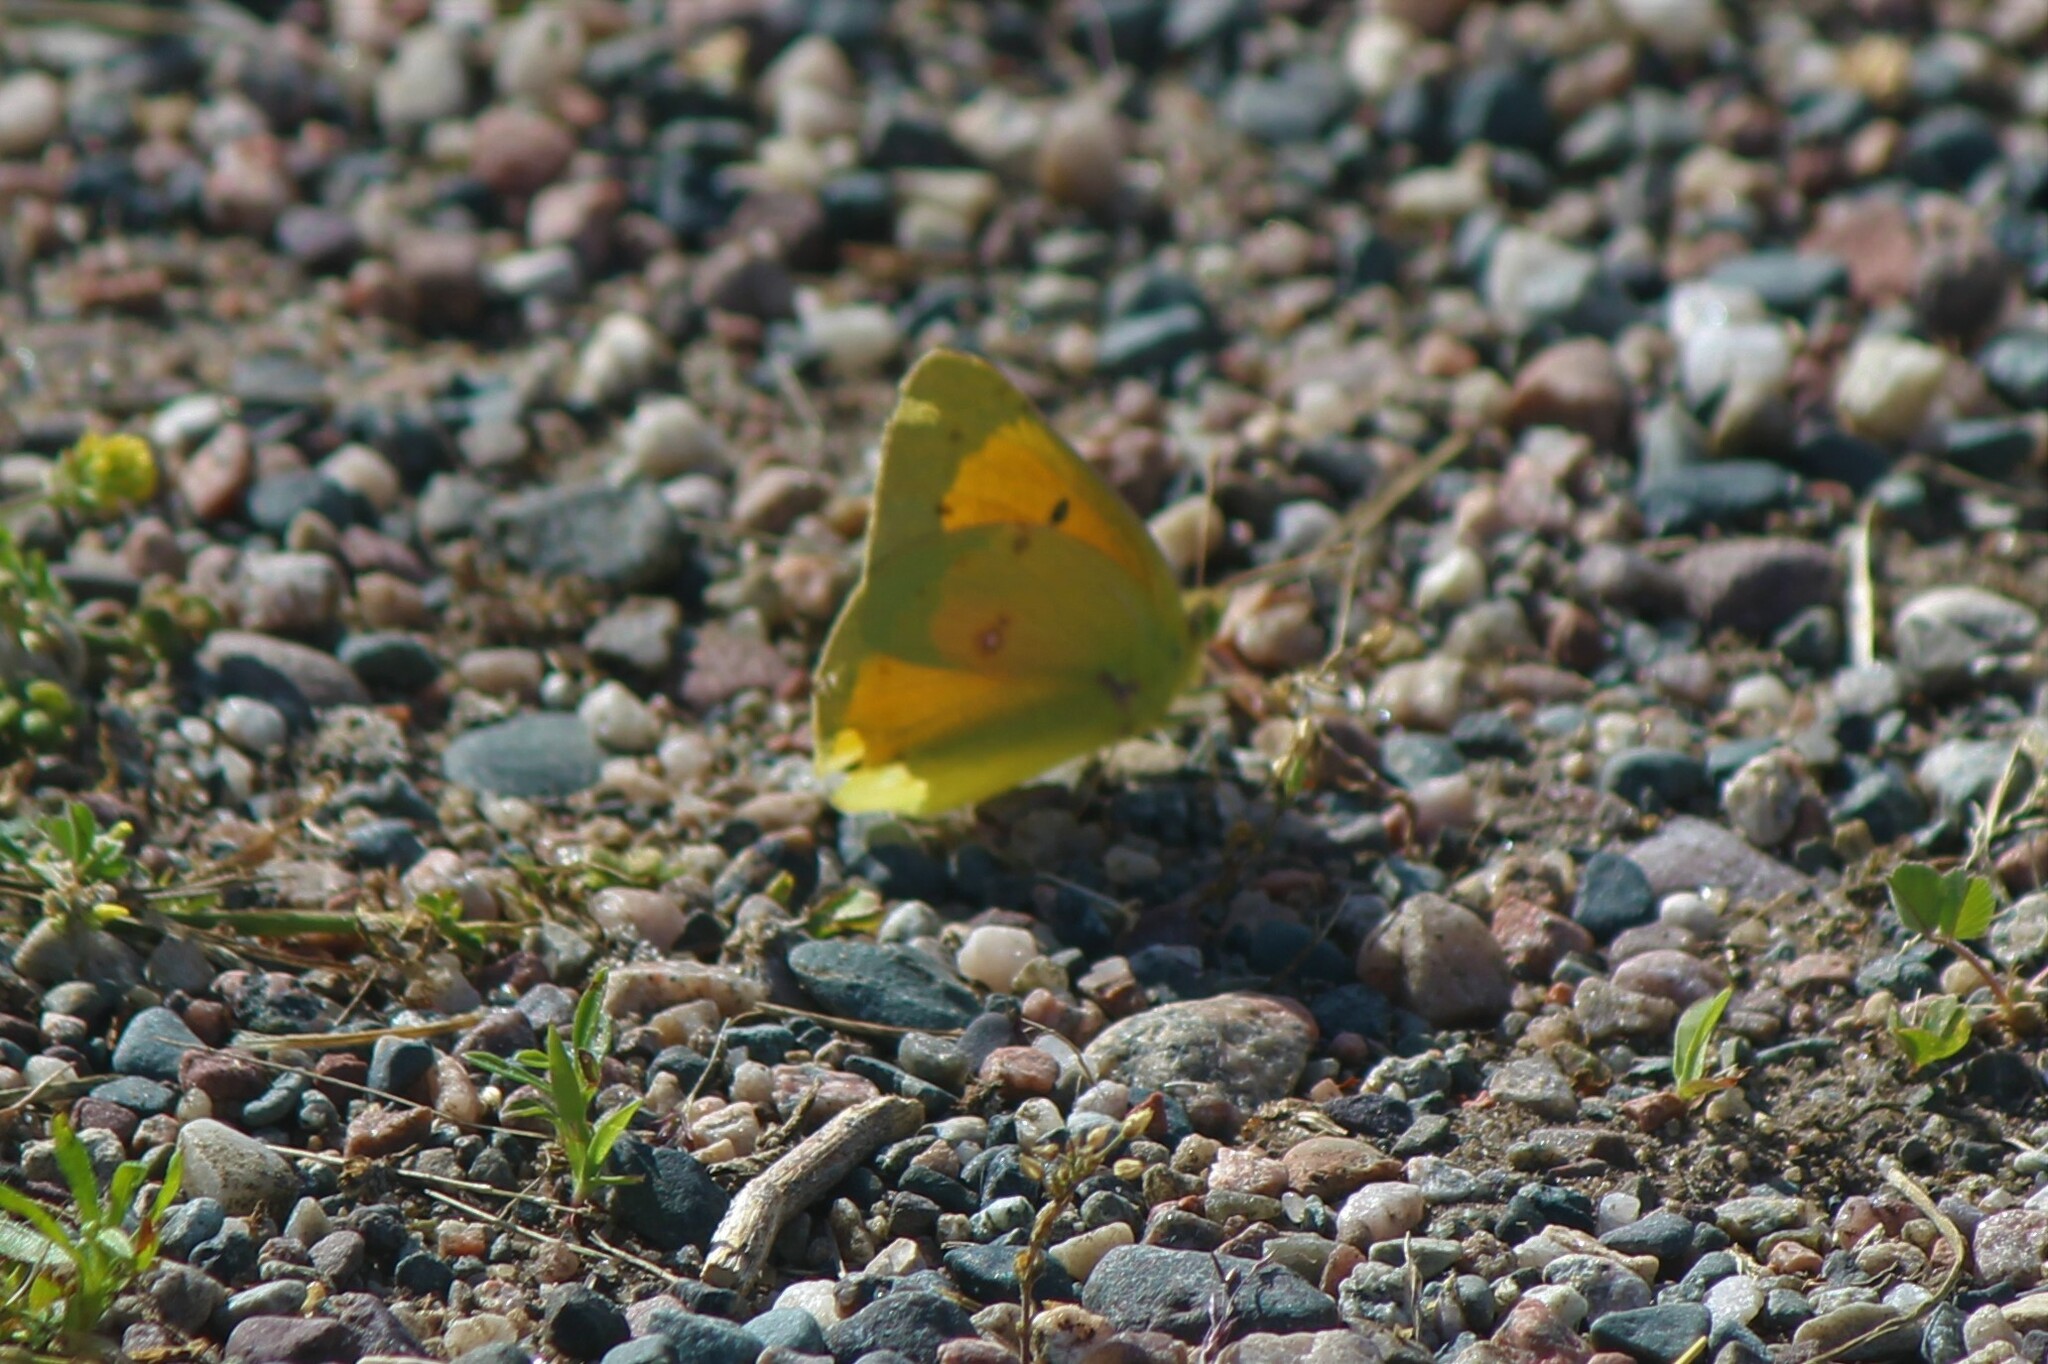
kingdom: Animalia
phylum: Arthropoda
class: Insecta
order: Lepidoptera
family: Pieridae
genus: Colias
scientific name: Colias eurytheme
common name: Alfalfa butterfly
